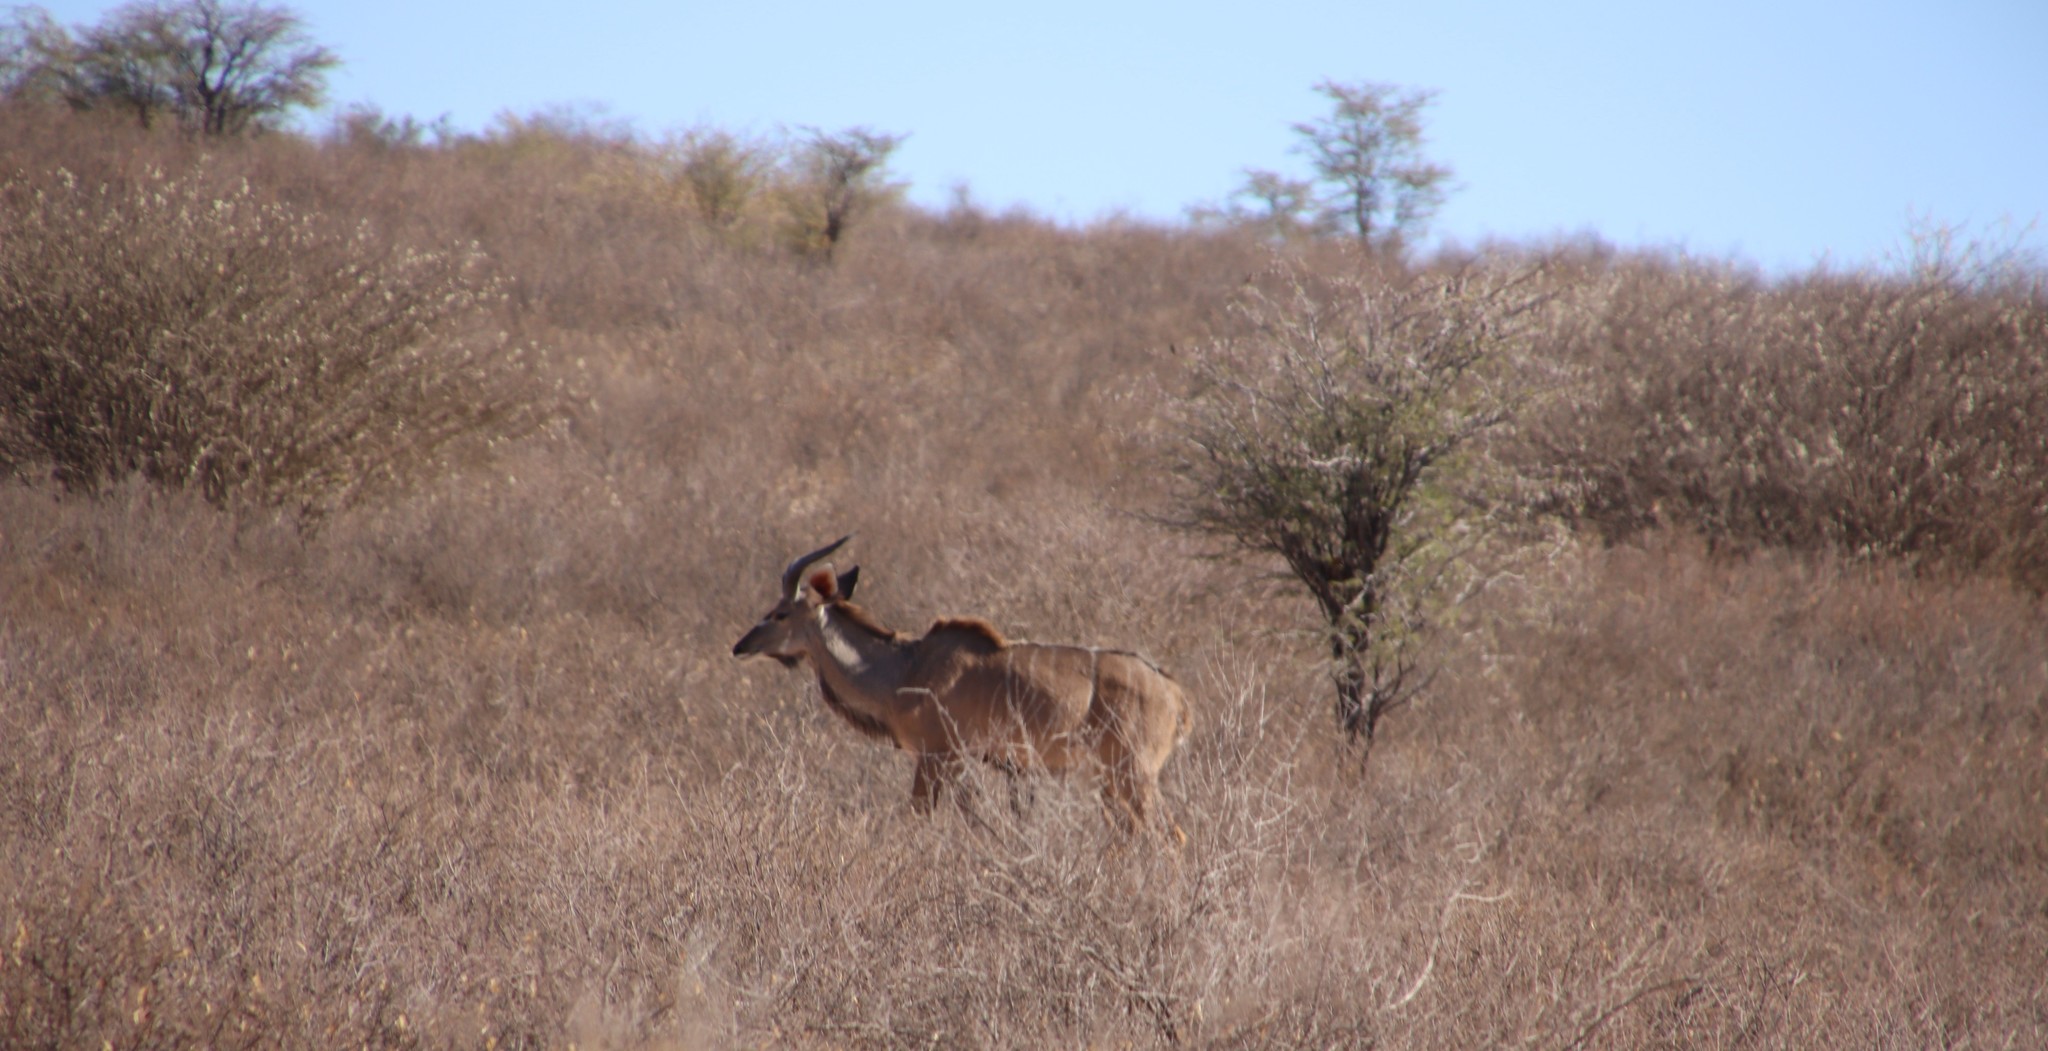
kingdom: Animalia
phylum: Chordata
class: Mammalia
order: Artiodactyla
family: Bovidae
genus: Tragelaphus
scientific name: Tragelaphus strepsiceros
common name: Greater kudu
